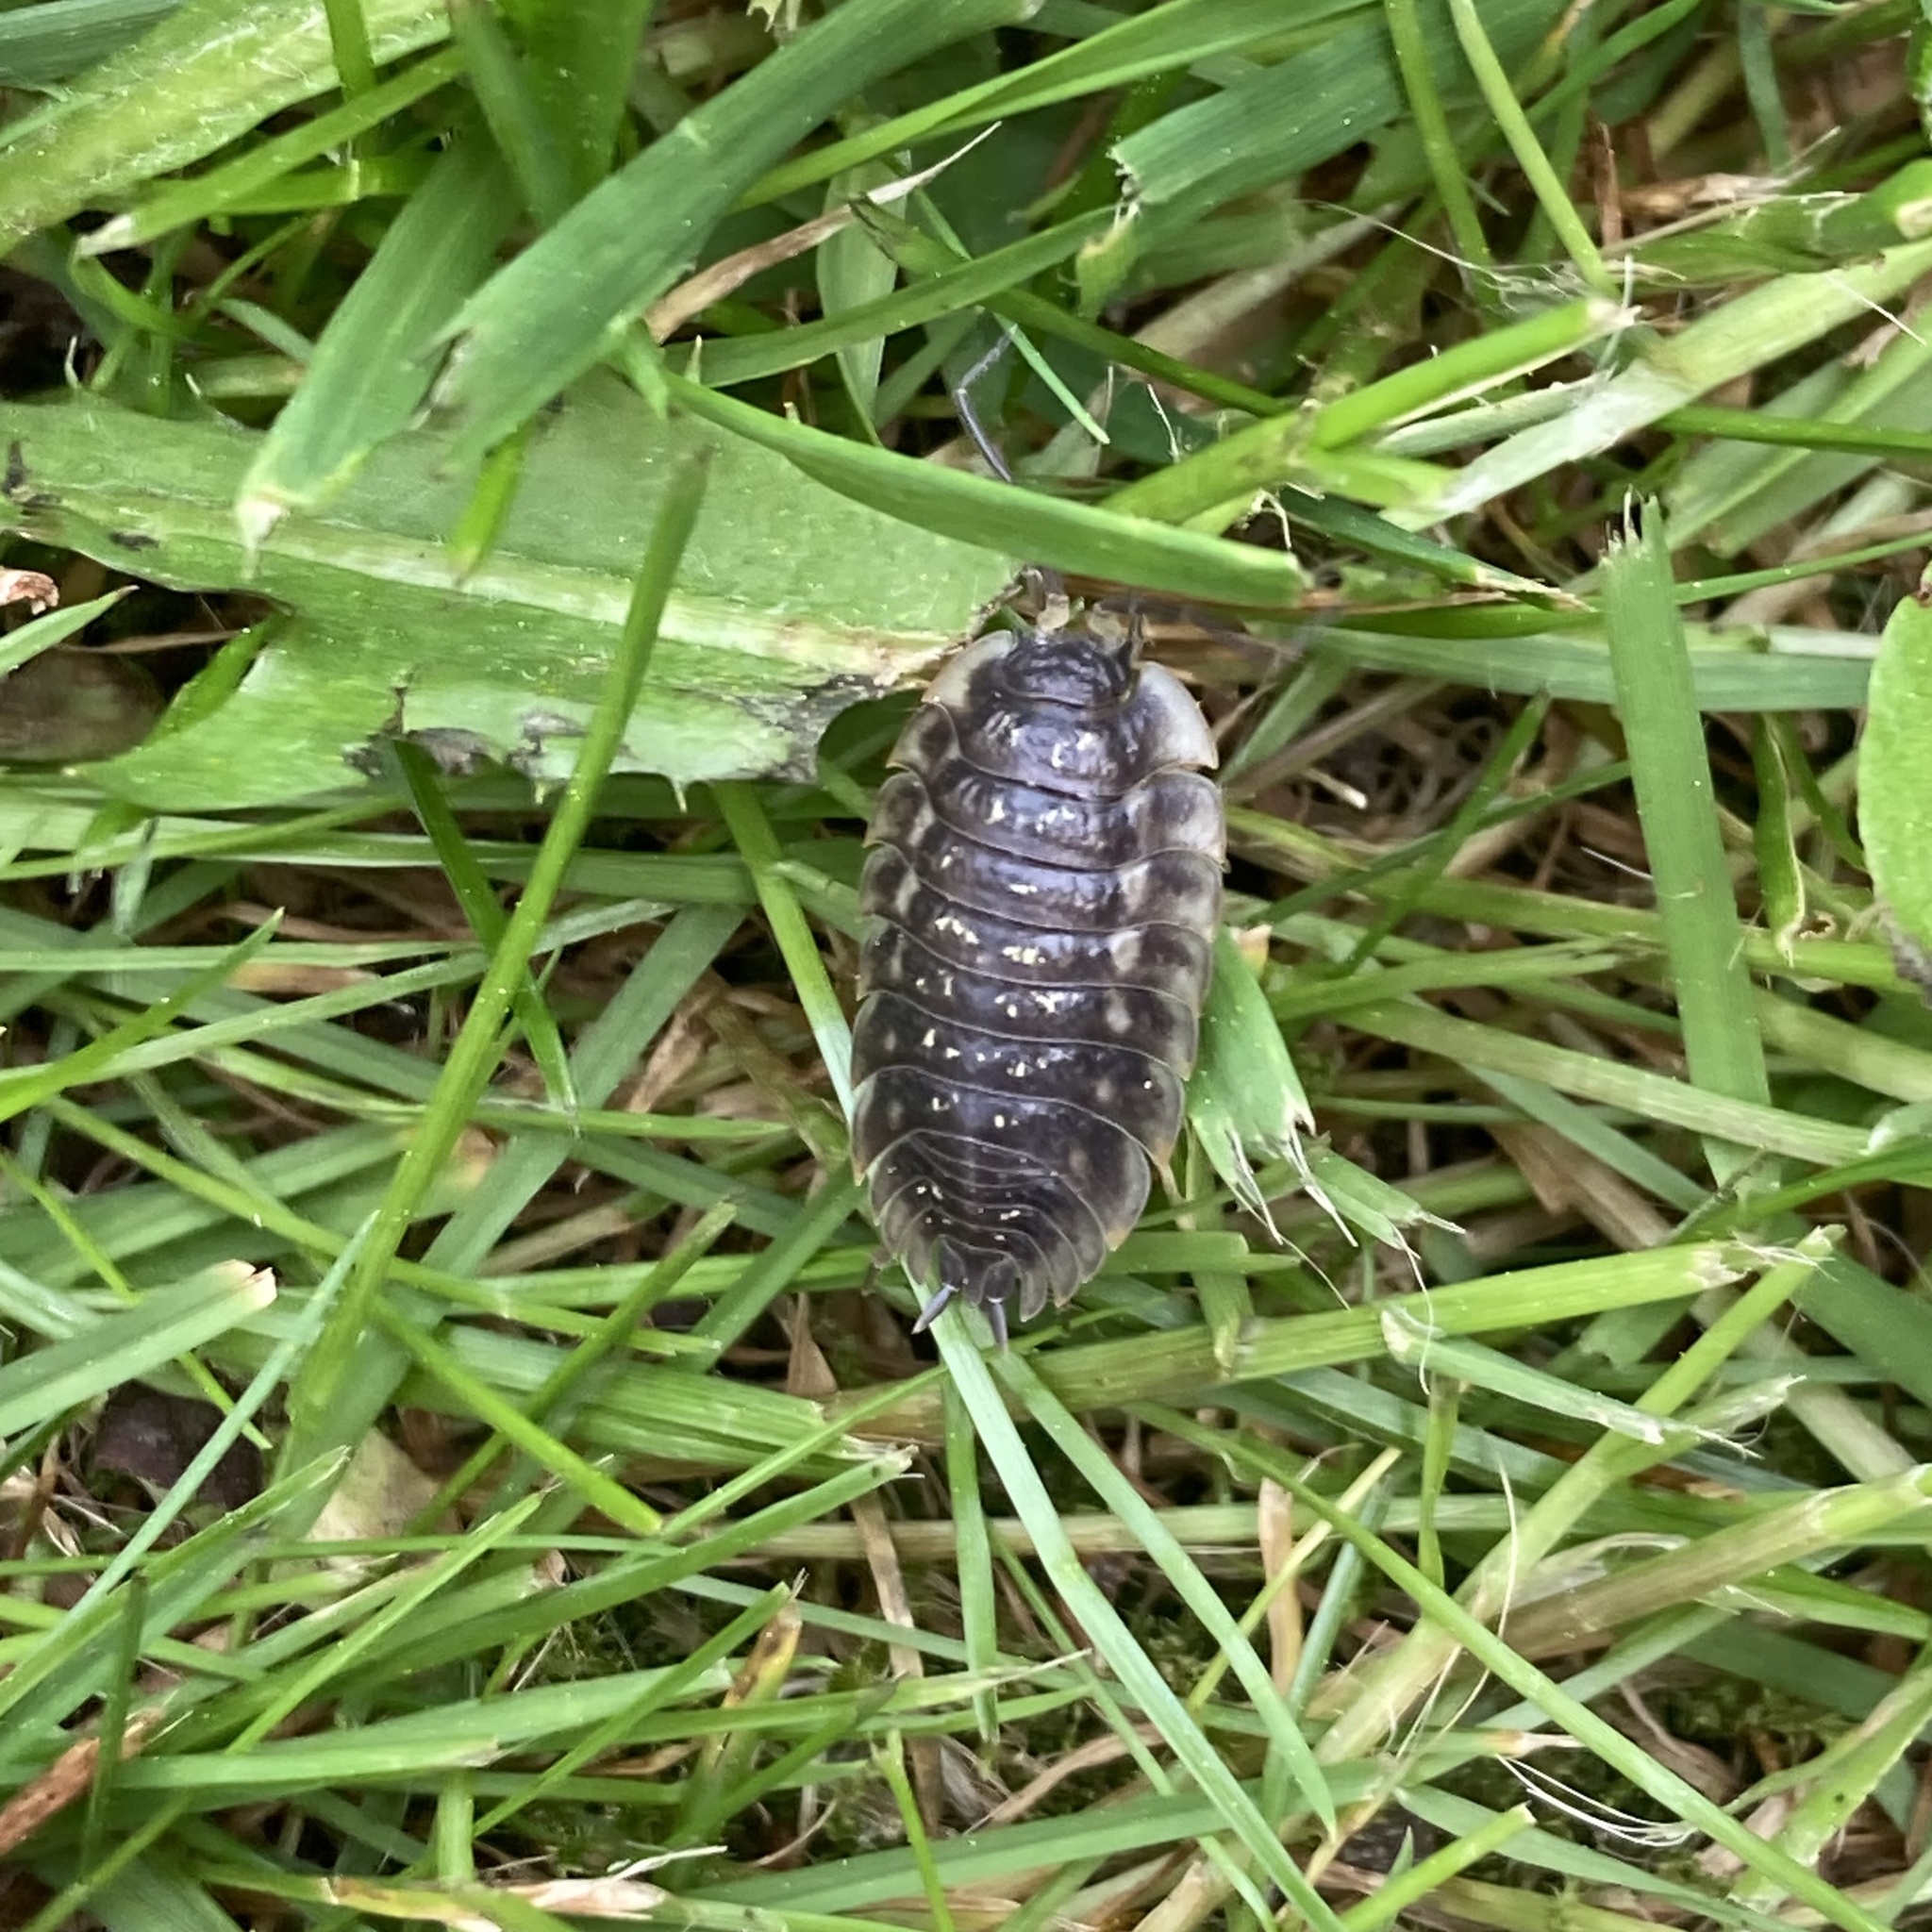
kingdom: Animalia
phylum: Arthropoda
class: Malacostraca
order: Isopoda
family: Oniscidae
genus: Oniscus
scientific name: Oniscus asellus
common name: Common shiny woodlouse
